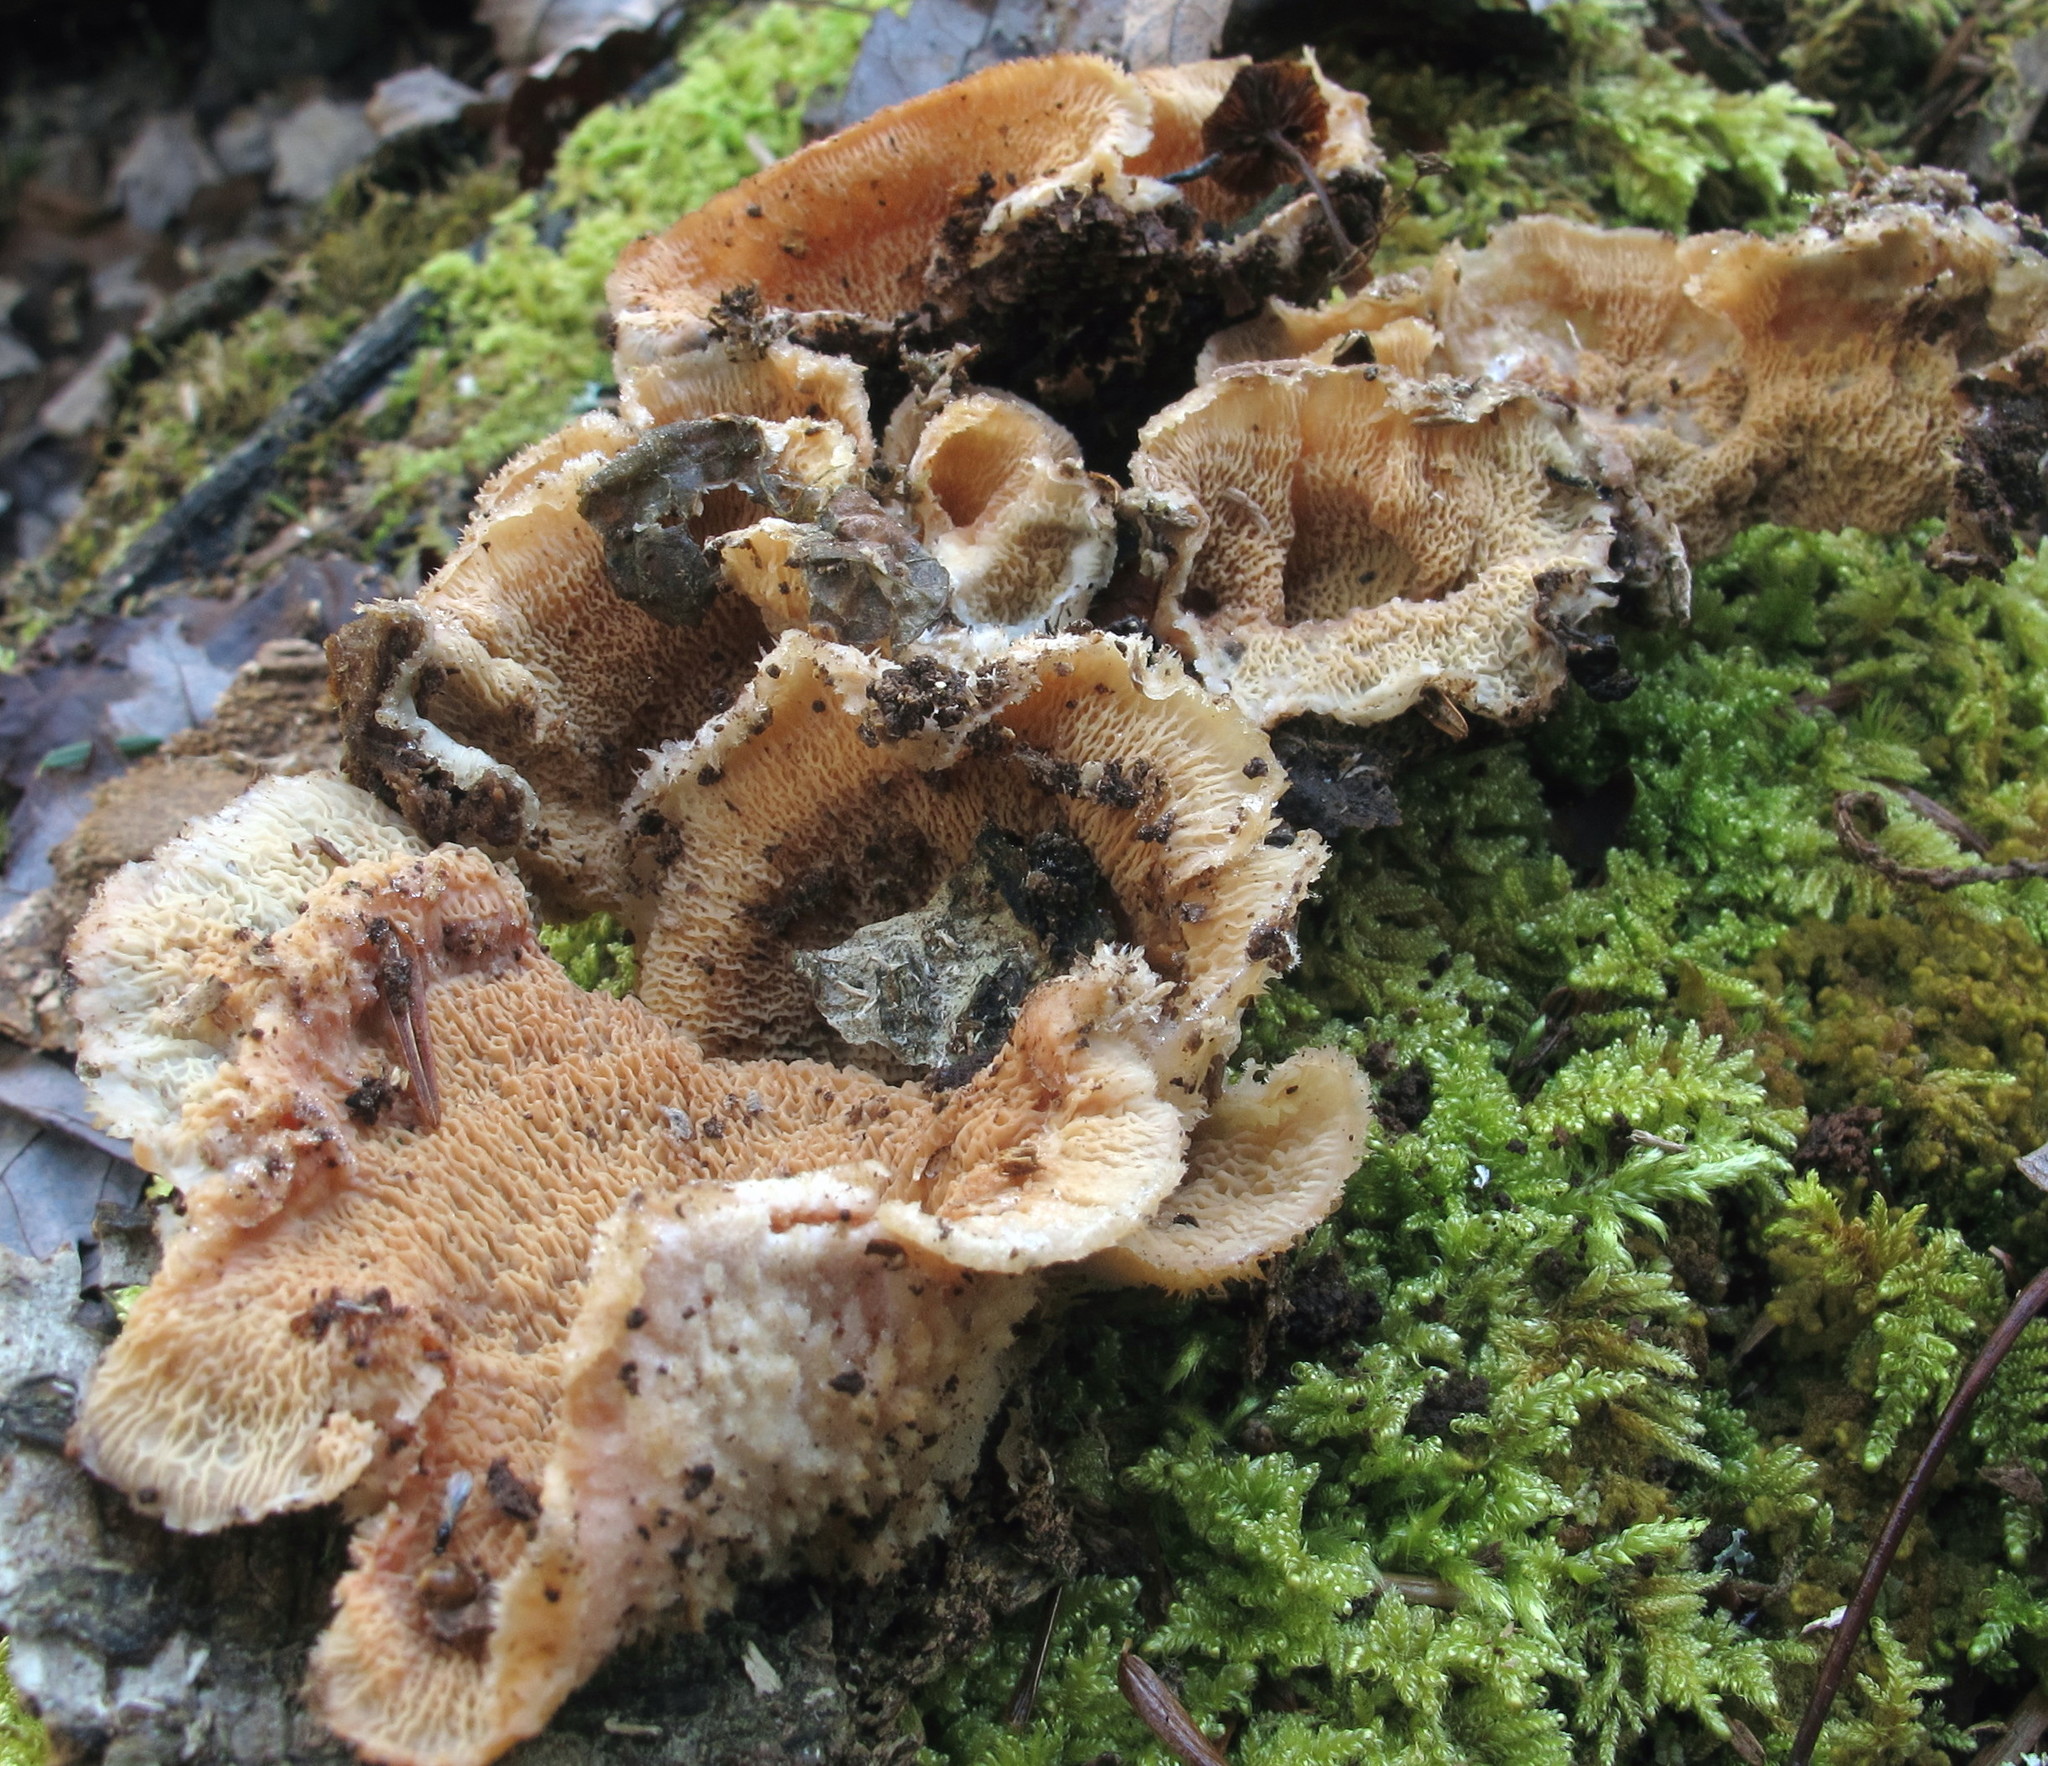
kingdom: Fungi
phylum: Basidiomycota
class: Agaricomycetes
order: Polyporales
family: Meruliaceae
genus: Phlebia
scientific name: Phlebia tremellosa
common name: Jelly rot
